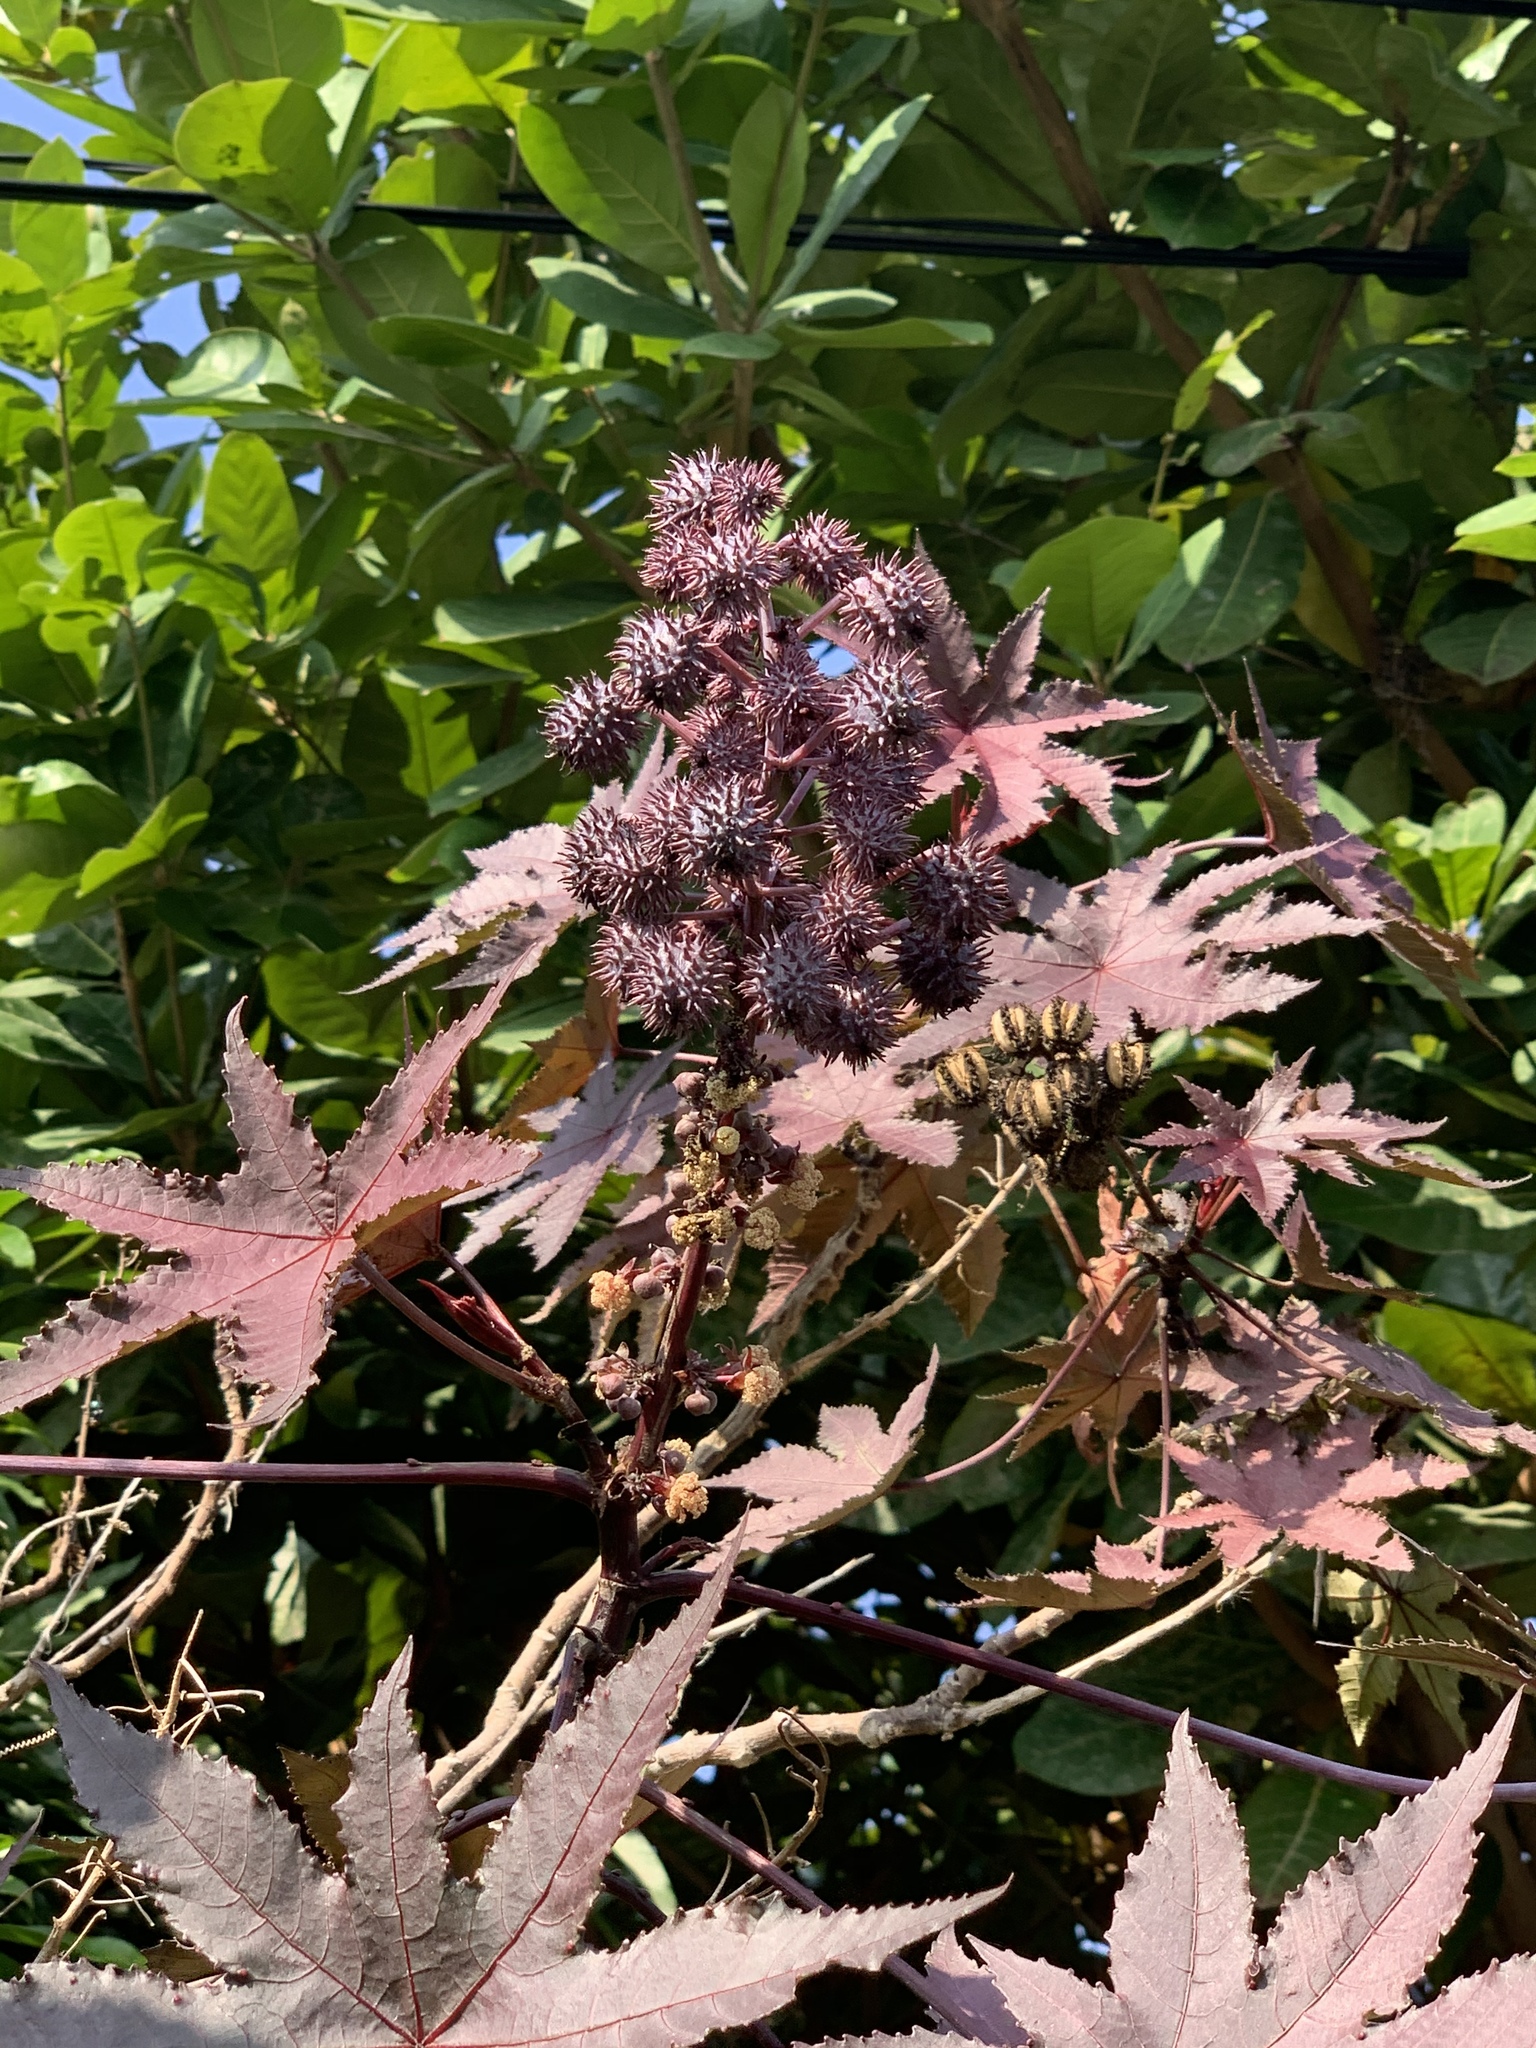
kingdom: Plantae
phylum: Tracheophyta
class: Magnoliopsida
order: Malpighiales
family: Euphorbiaceae
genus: Ricinus
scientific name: Ricinus communis
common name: Castor-oil-plant
